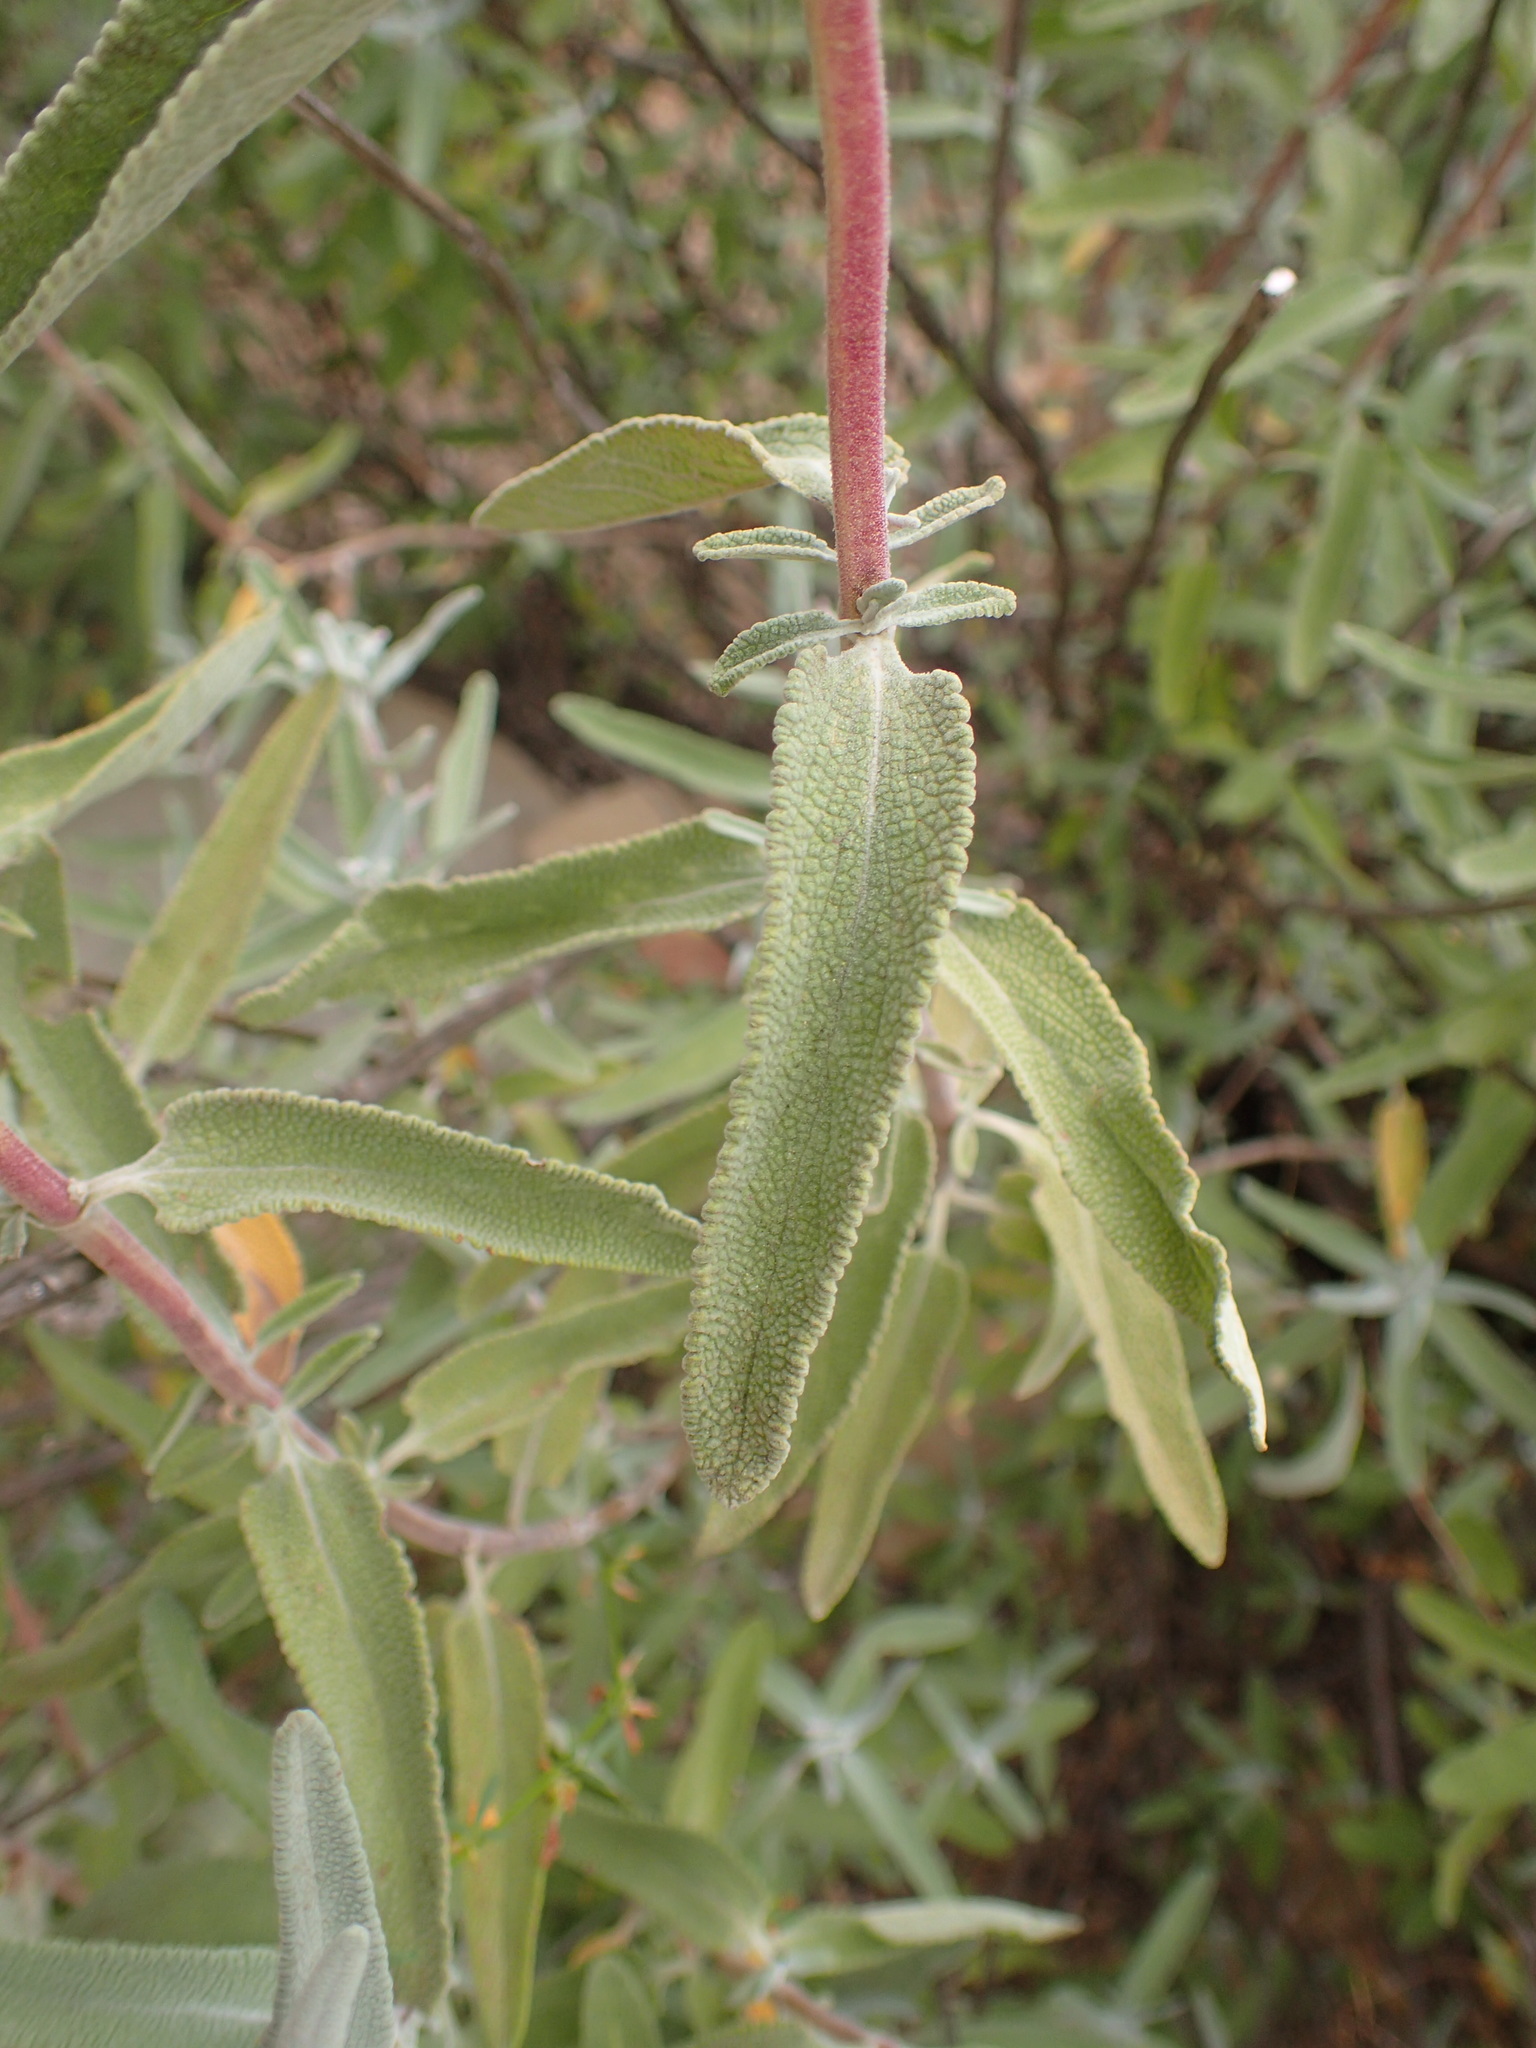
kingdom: Plantae
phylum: Tracheophyta
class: Magnoliopsida
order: Lamiales
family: Lamiaceae
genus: Salvia
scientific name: Salvia leucophylla
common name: Purple sage
